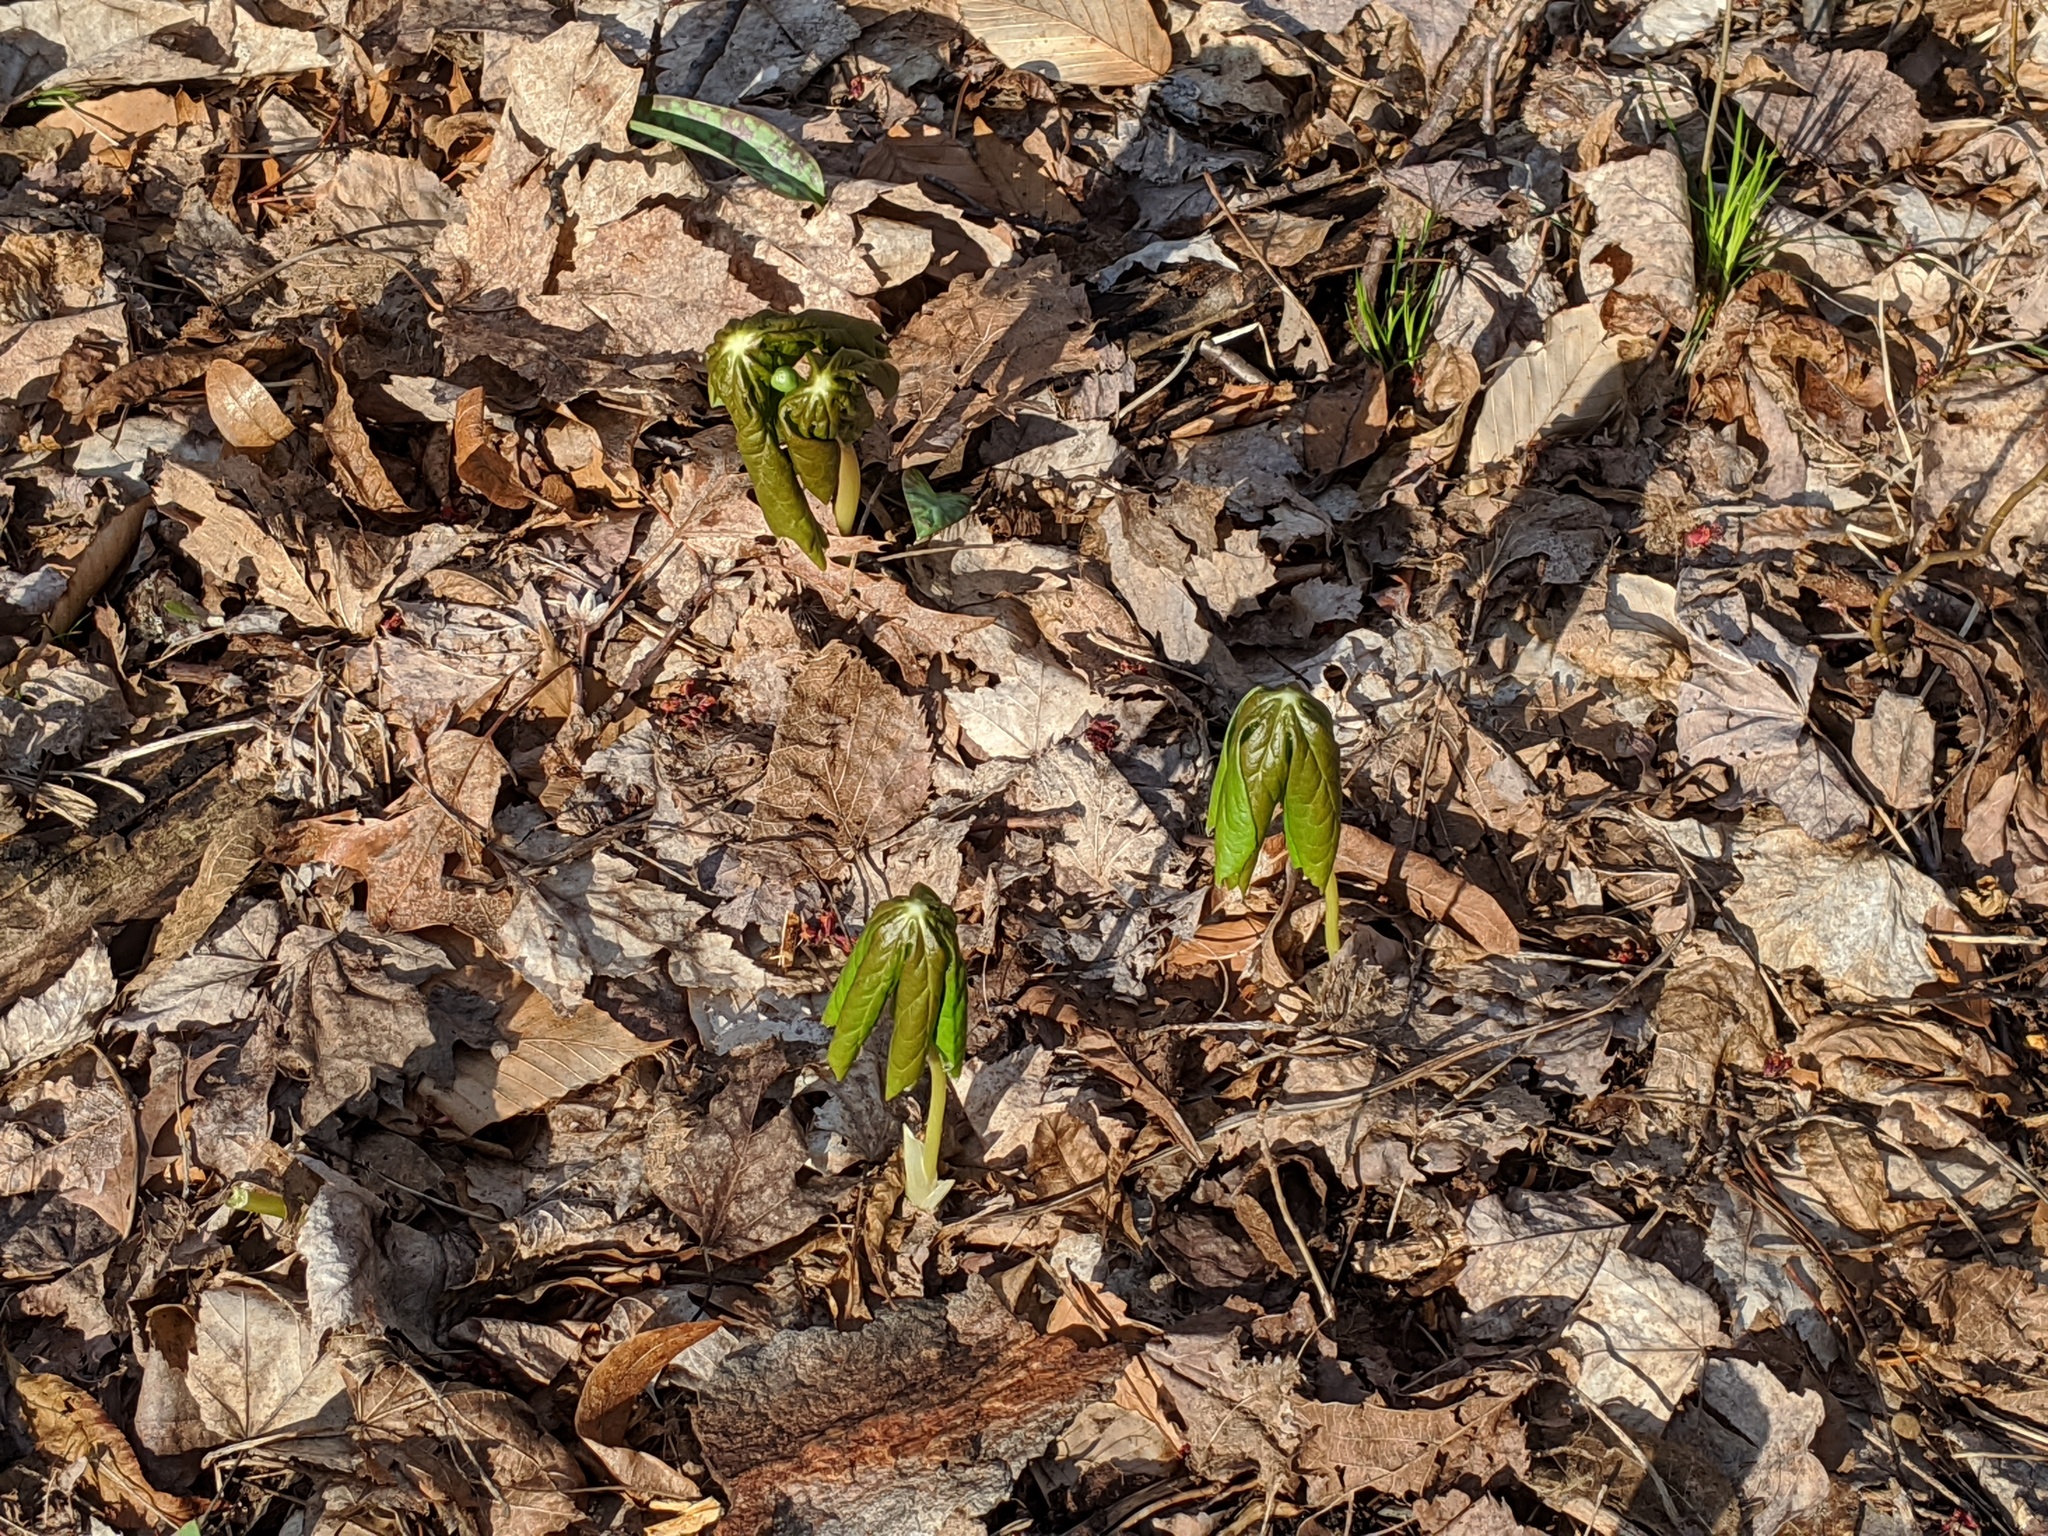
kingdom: Plantae
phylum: Tracheophyta
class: Magnoliopsida
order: Ranunculales
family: Berberidaceae
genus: Podophyllum
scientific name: Podophyllum peltatum
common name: Wild mandrake
